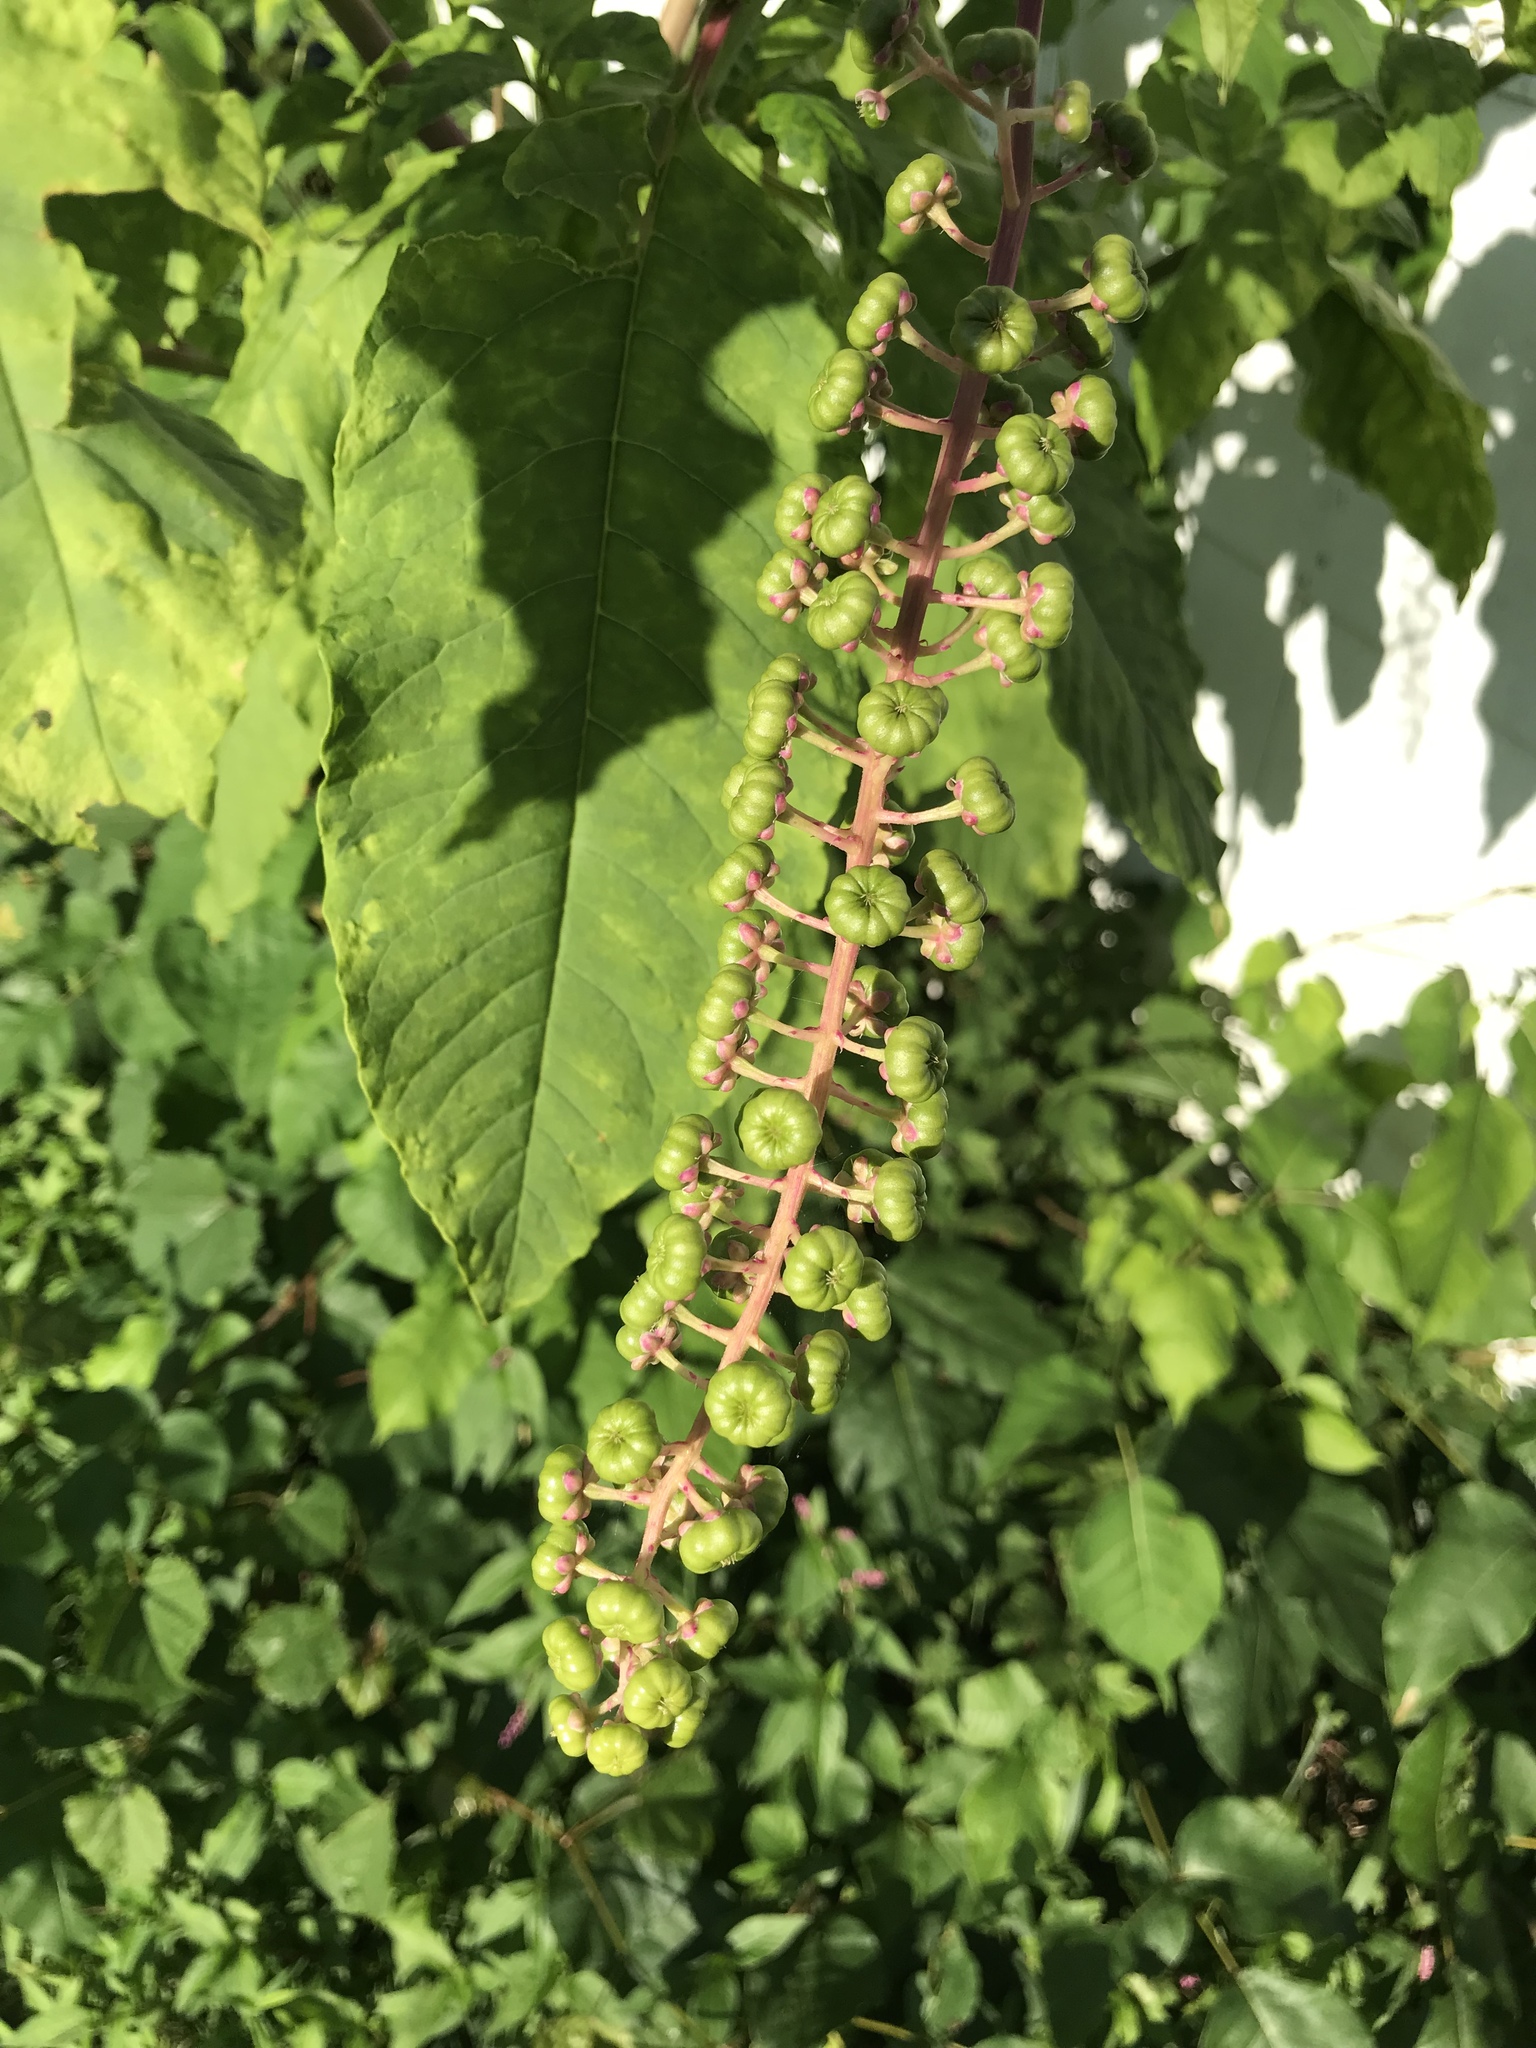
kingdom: Plantae
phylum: Tracheophyta
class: Magnoliopsida
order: Caryophyllales
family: Phytolaccaceae
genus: Phytolacca
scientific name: Phytolacca americana
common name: American pokeweed
